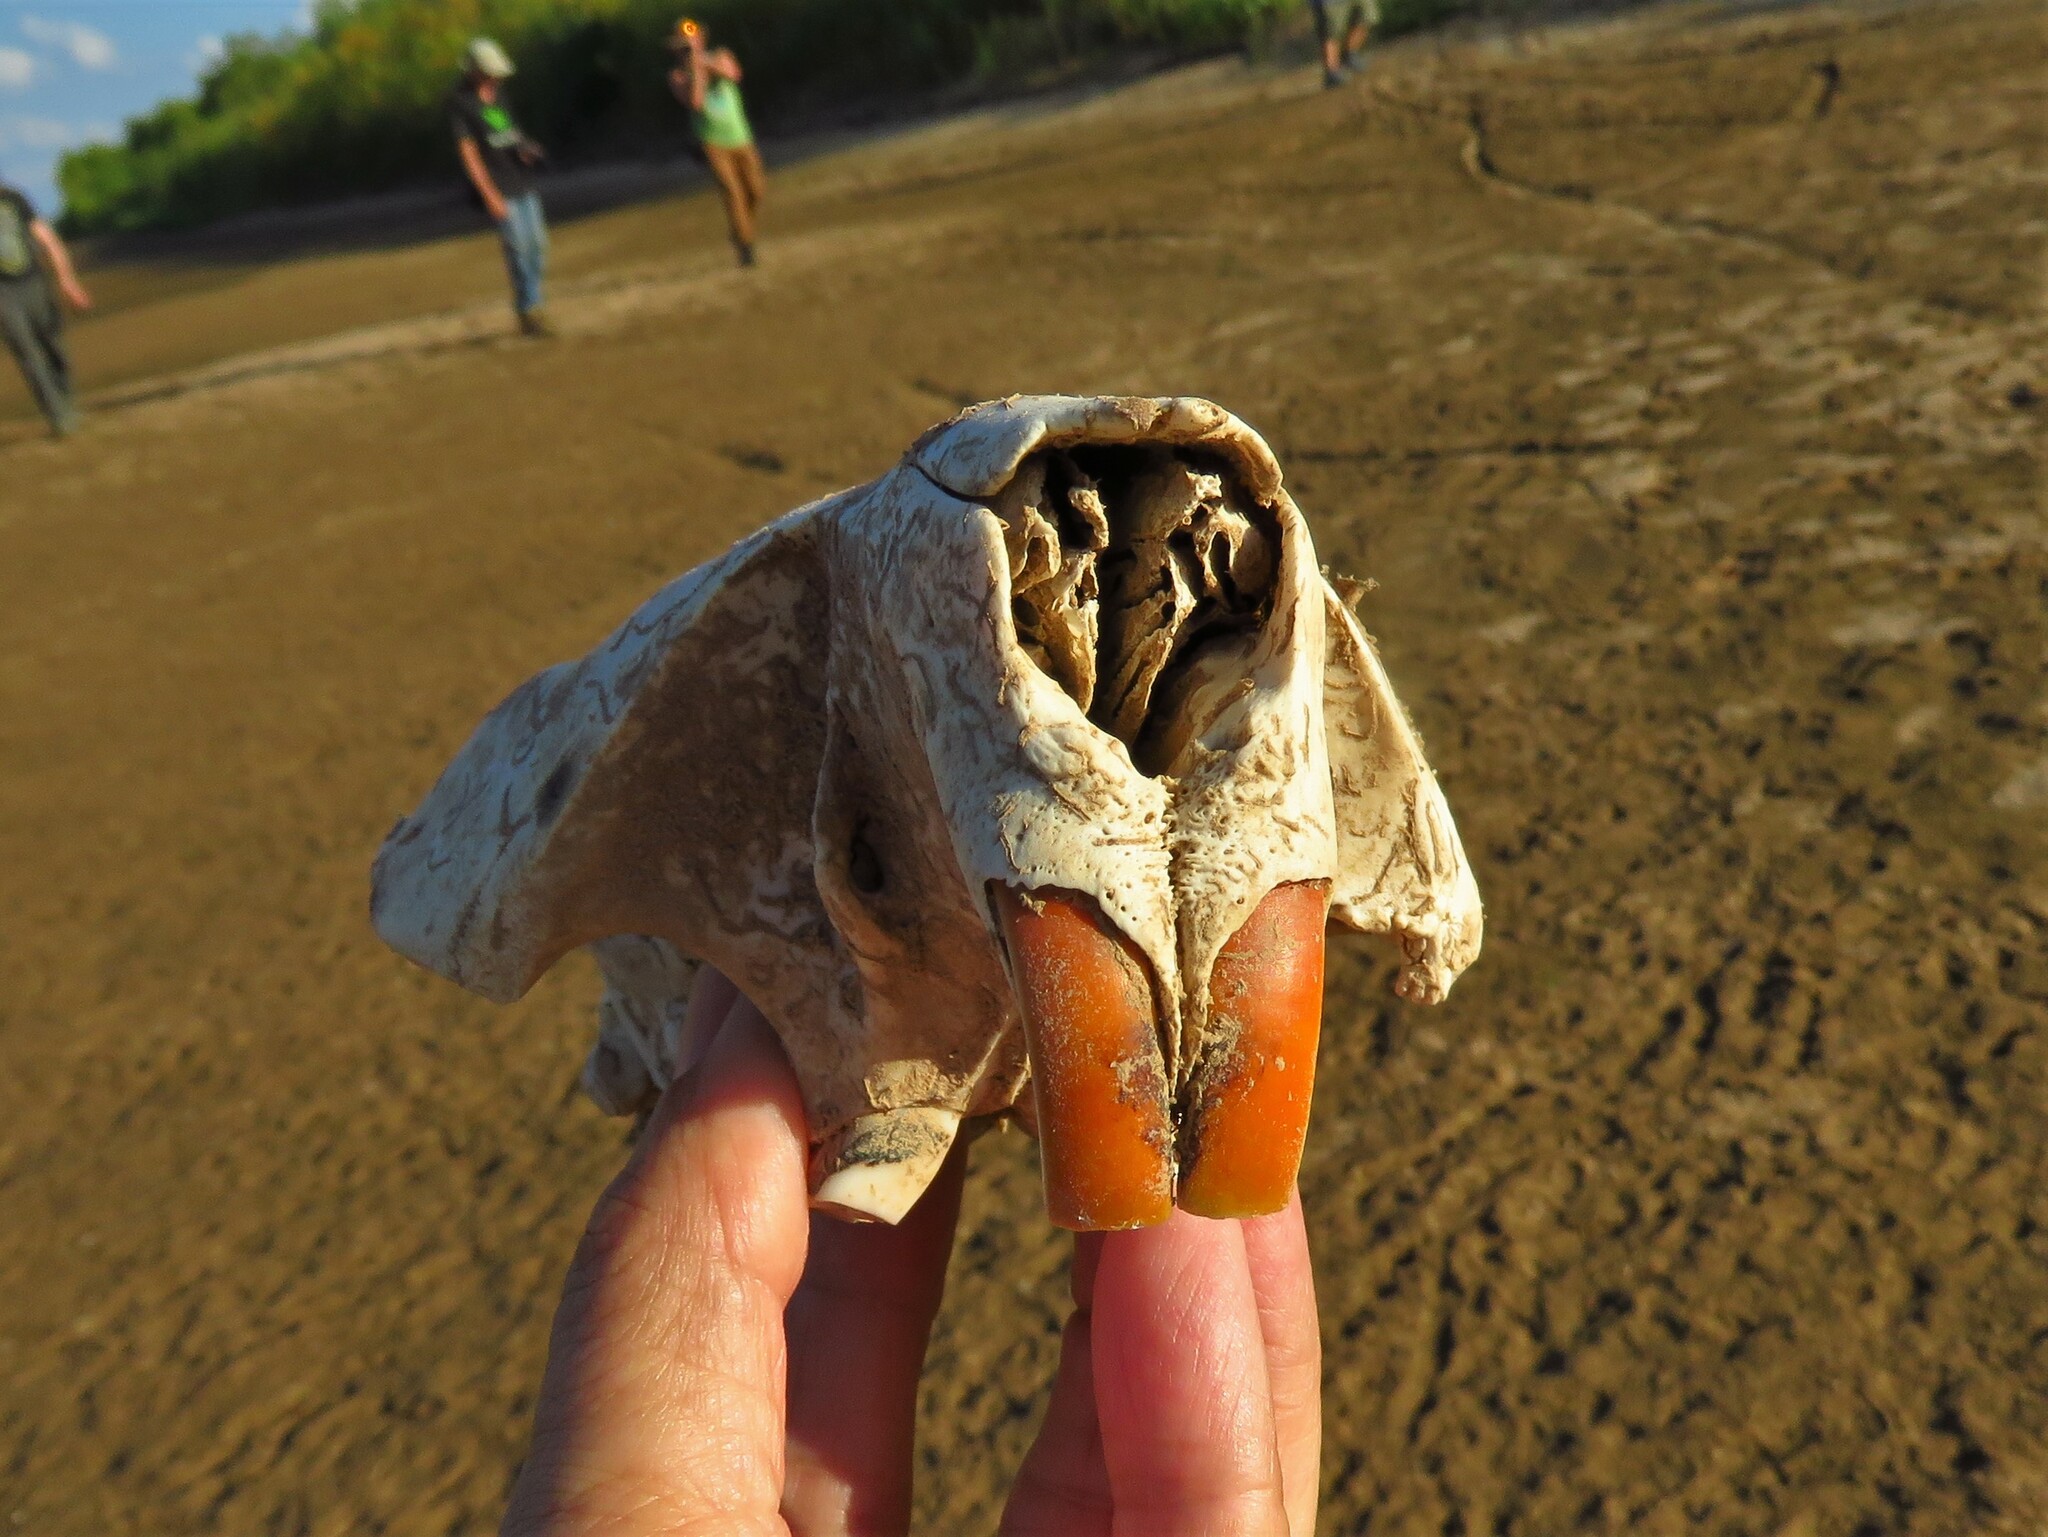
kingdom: Animalia
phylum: Chordata
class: Mammalia
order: Rodentia
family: Castoridae
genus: Castor
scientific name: Castor canadensis
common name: American beaver
